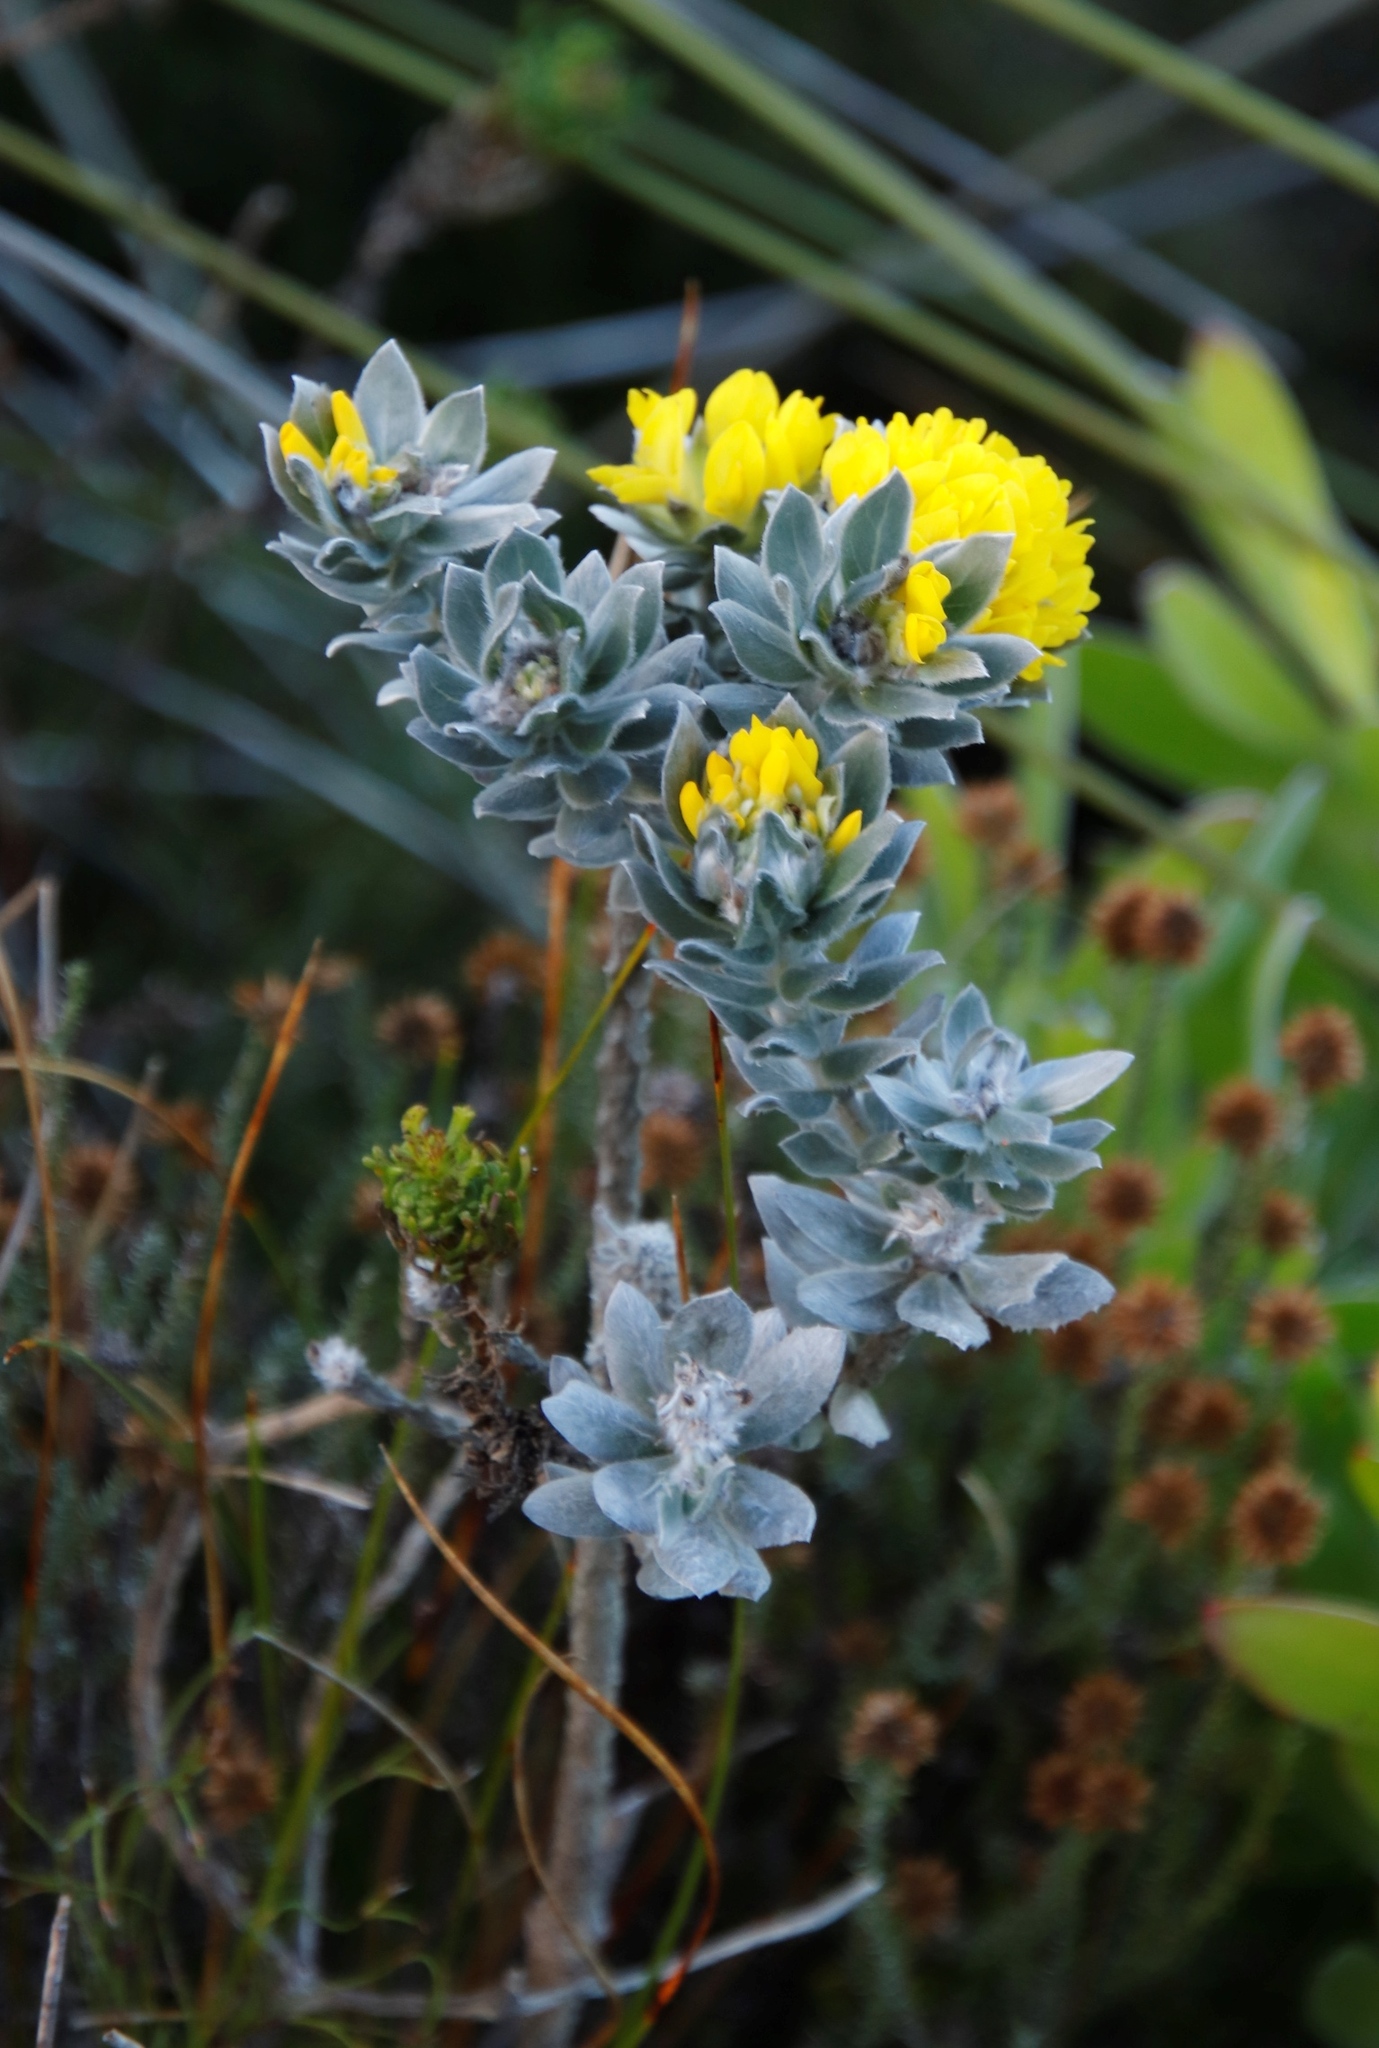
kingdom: Plantae
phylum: Tracheophyta
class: Magnoliopsida
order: Fabales
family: Fabaceae
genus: Xiphotheca
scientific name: Xiphotheca fruticosa
